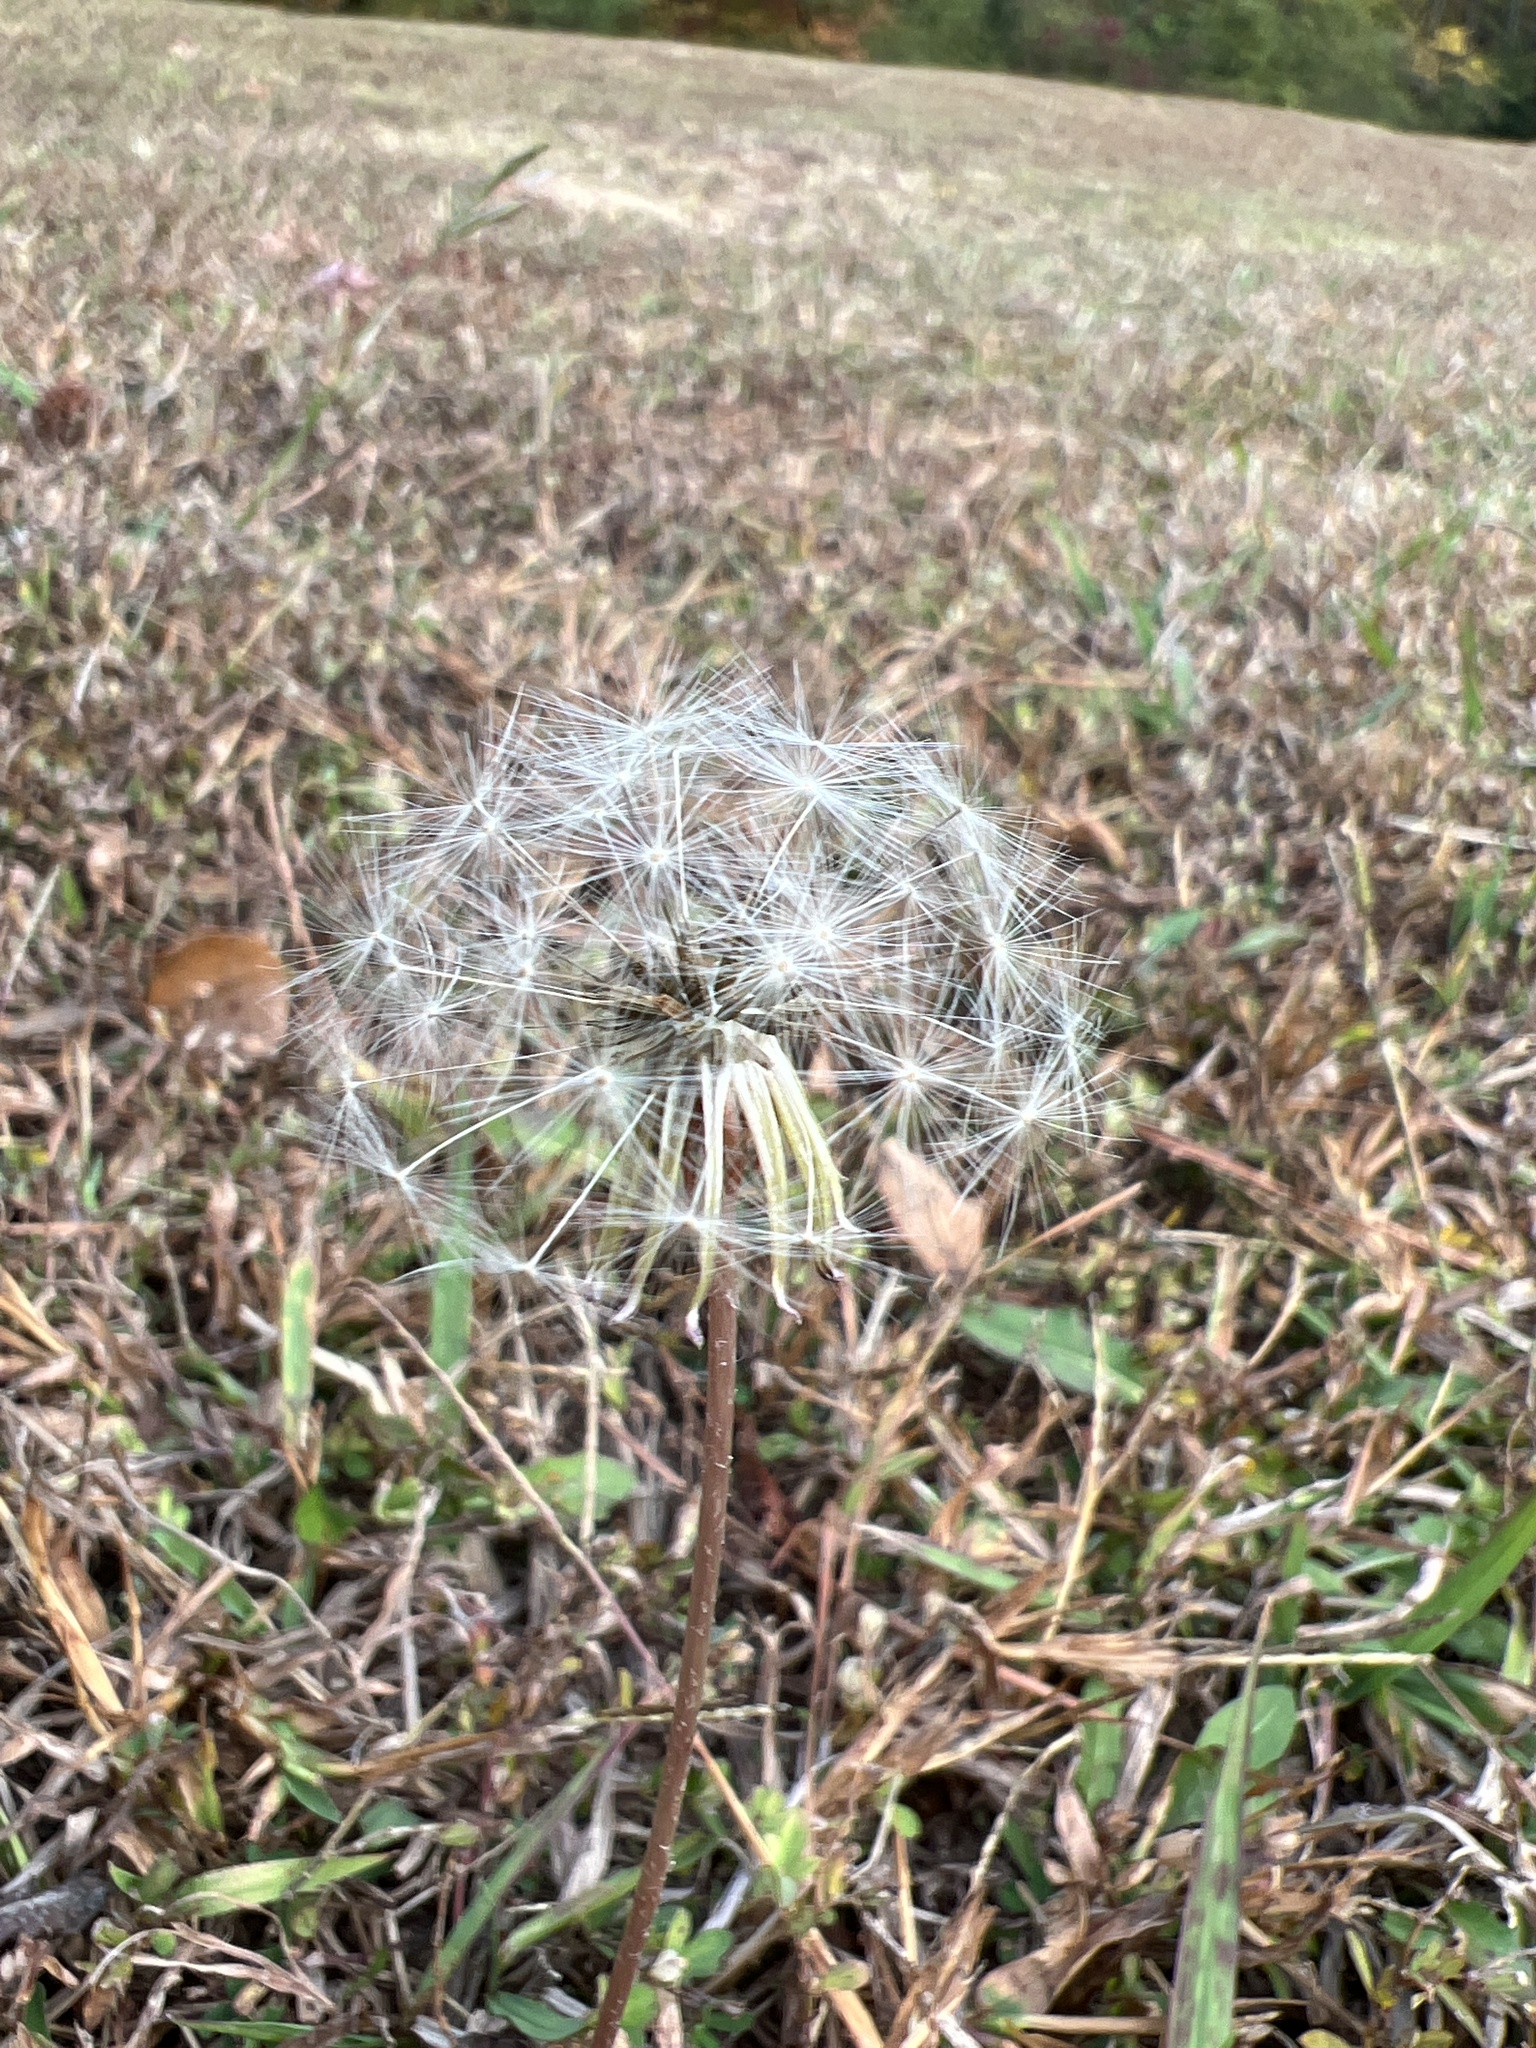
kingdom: Plantae
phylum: Tracheophyta
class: Magnoliopsida
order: Asterales
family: Asteraceae
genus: Taraxacum
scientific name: Taraxacum officinale
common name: Common dandelion
